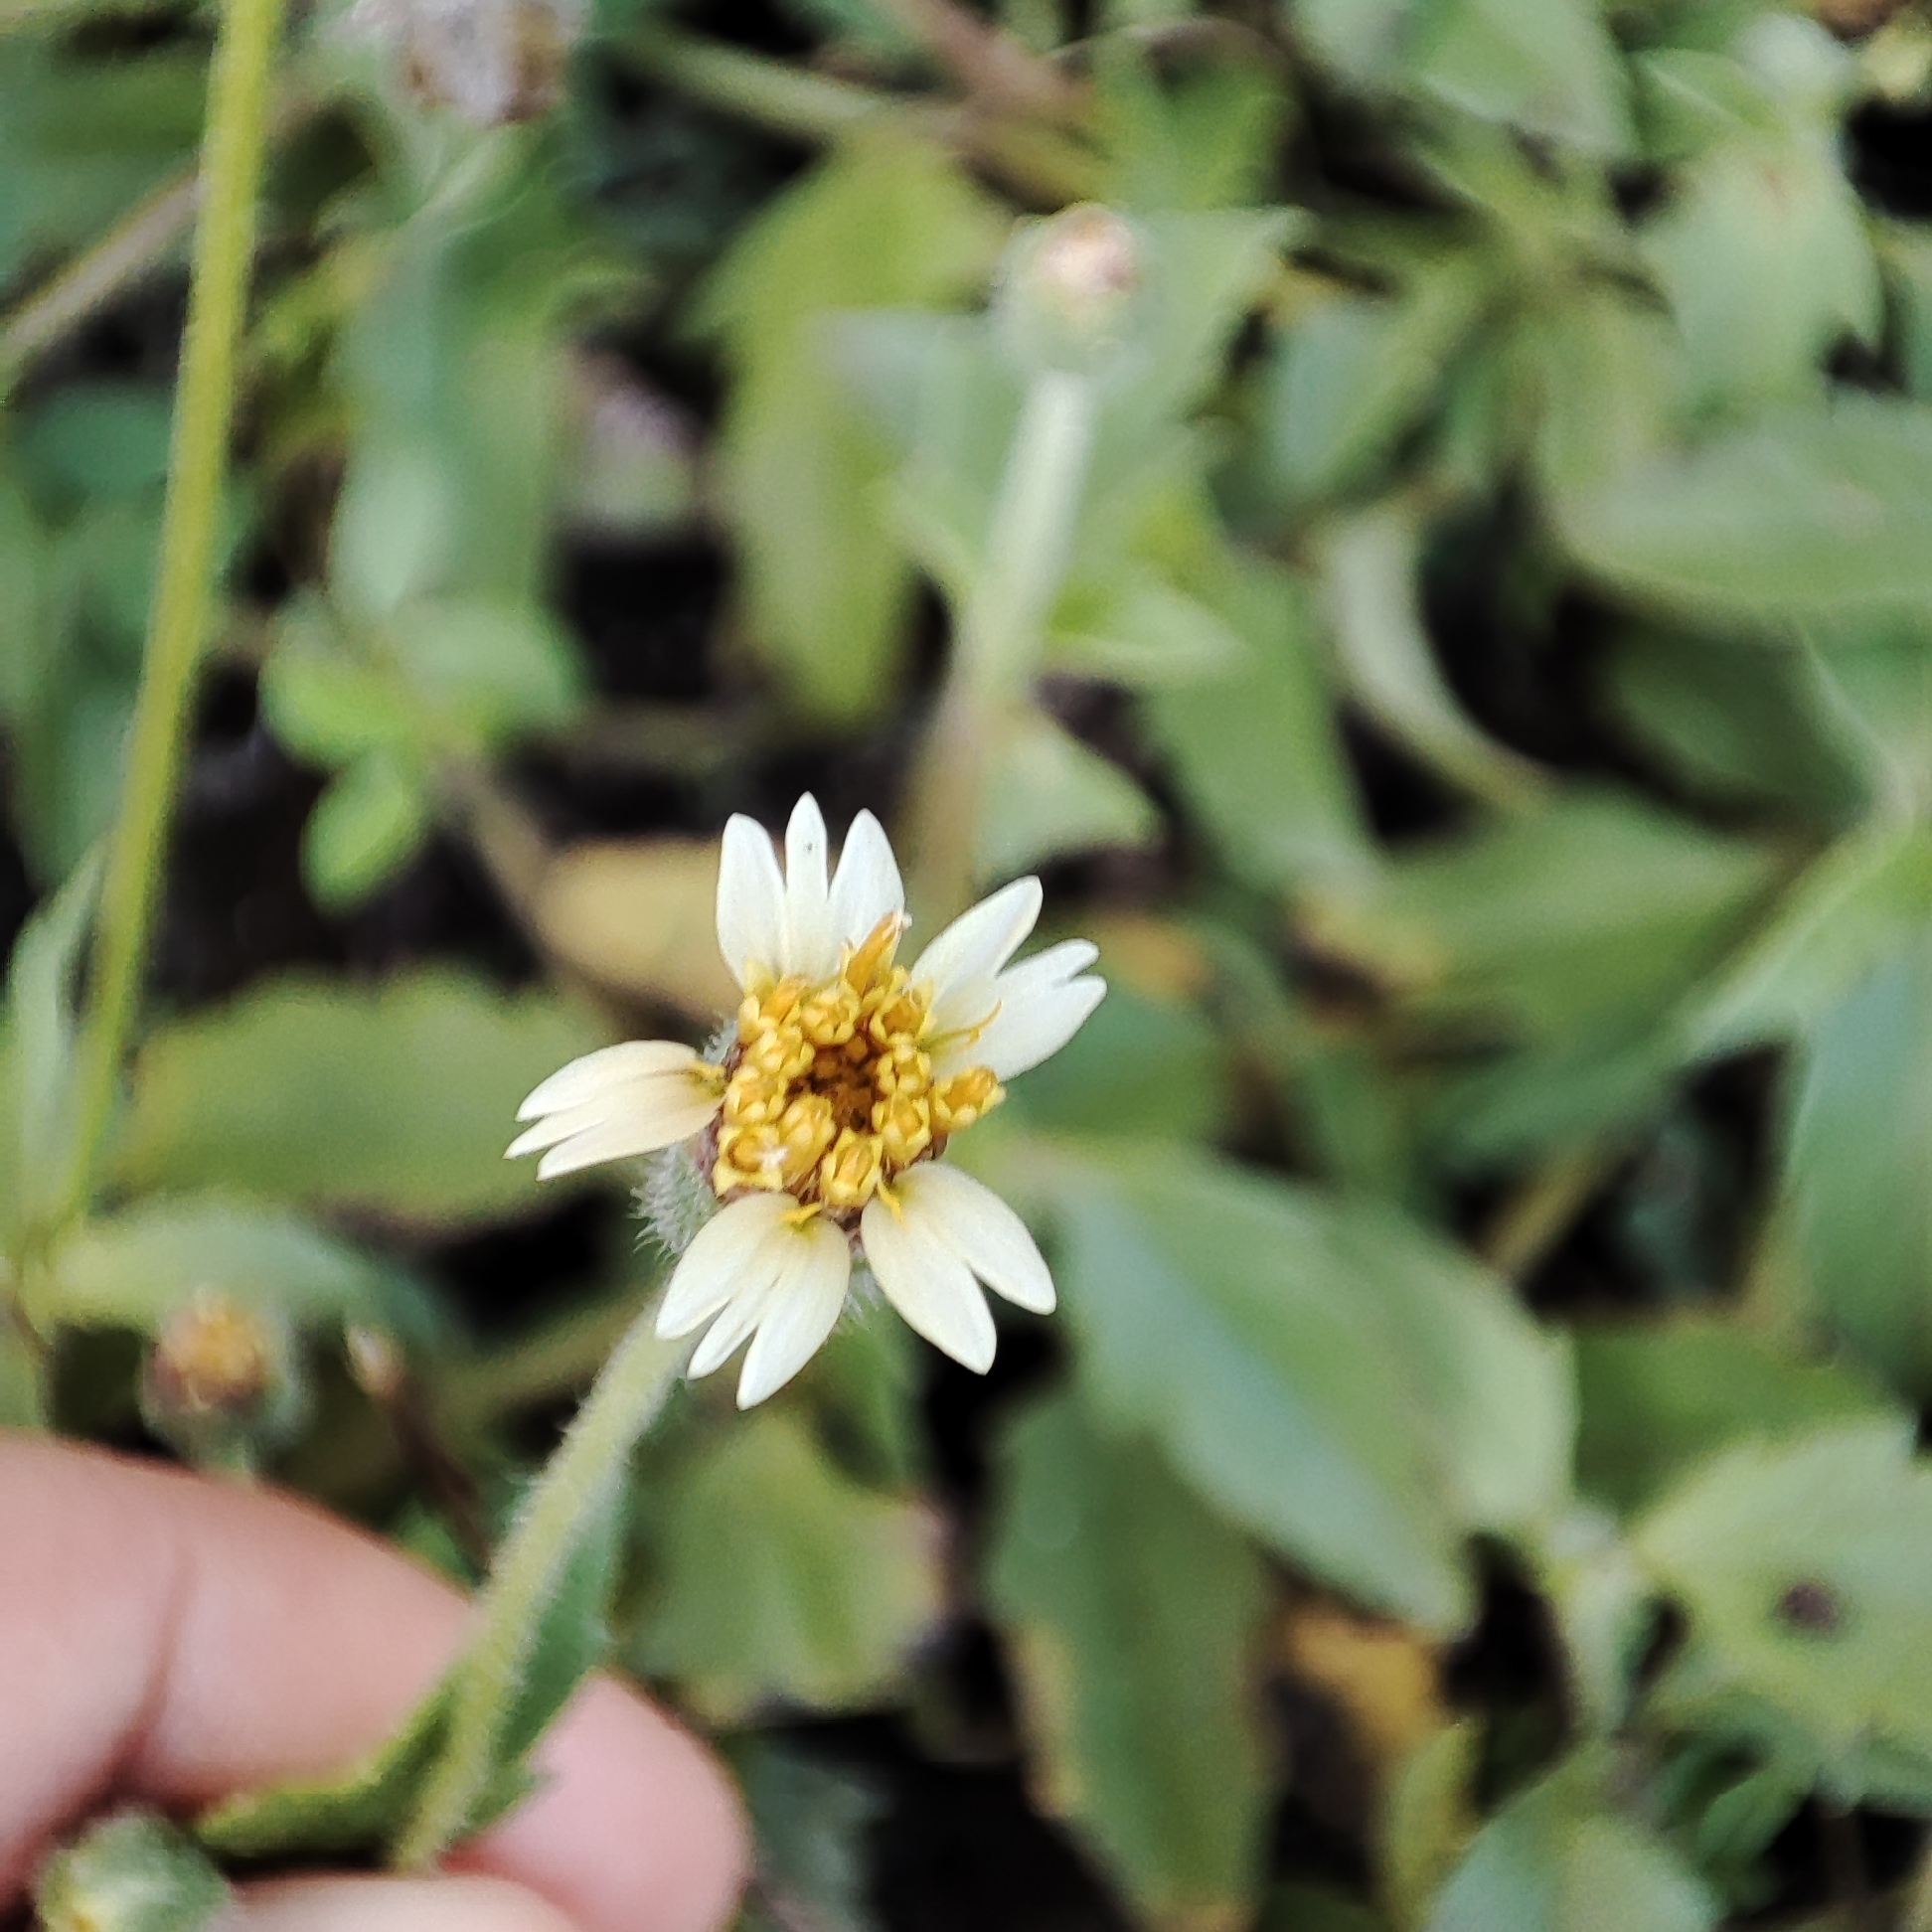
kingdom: Plantae
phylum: Tracheophyta
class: Magnoliopsida
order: Asterales
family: Asteraceae
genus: Tridax
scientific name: Tridax procumbens
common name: Coatbuttons
